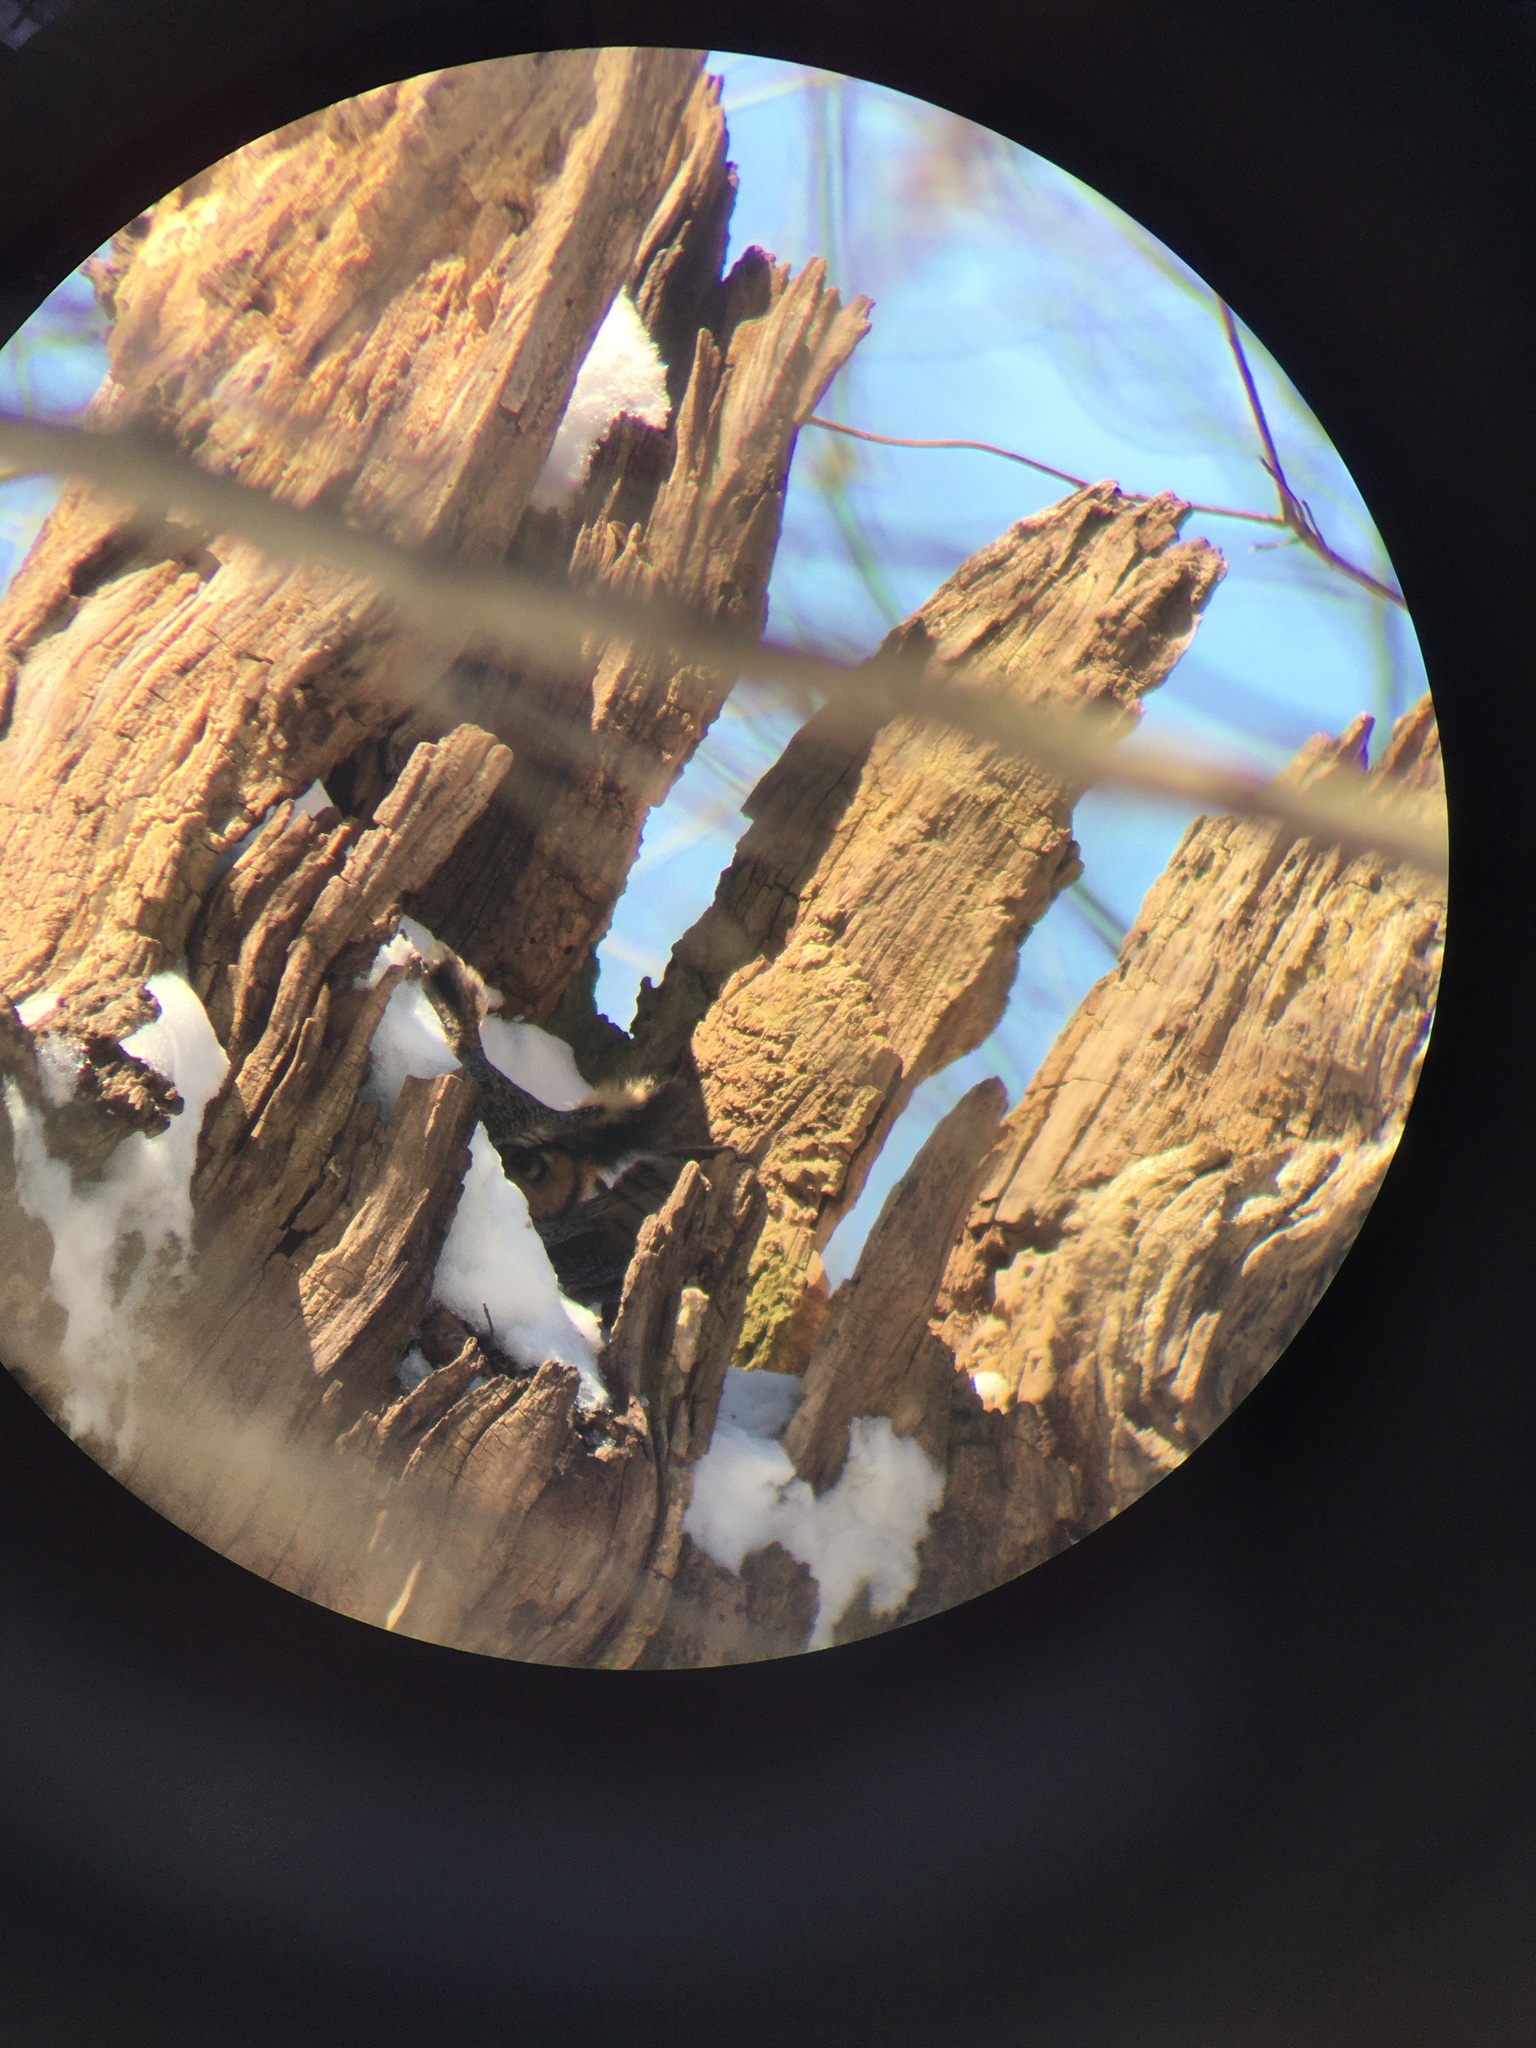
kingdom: Animalia
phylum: Chordata
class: Aves
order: Strigiformes
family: Strigidae
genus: Bubo
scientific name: Bubo virginianus
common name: Great horned owl
